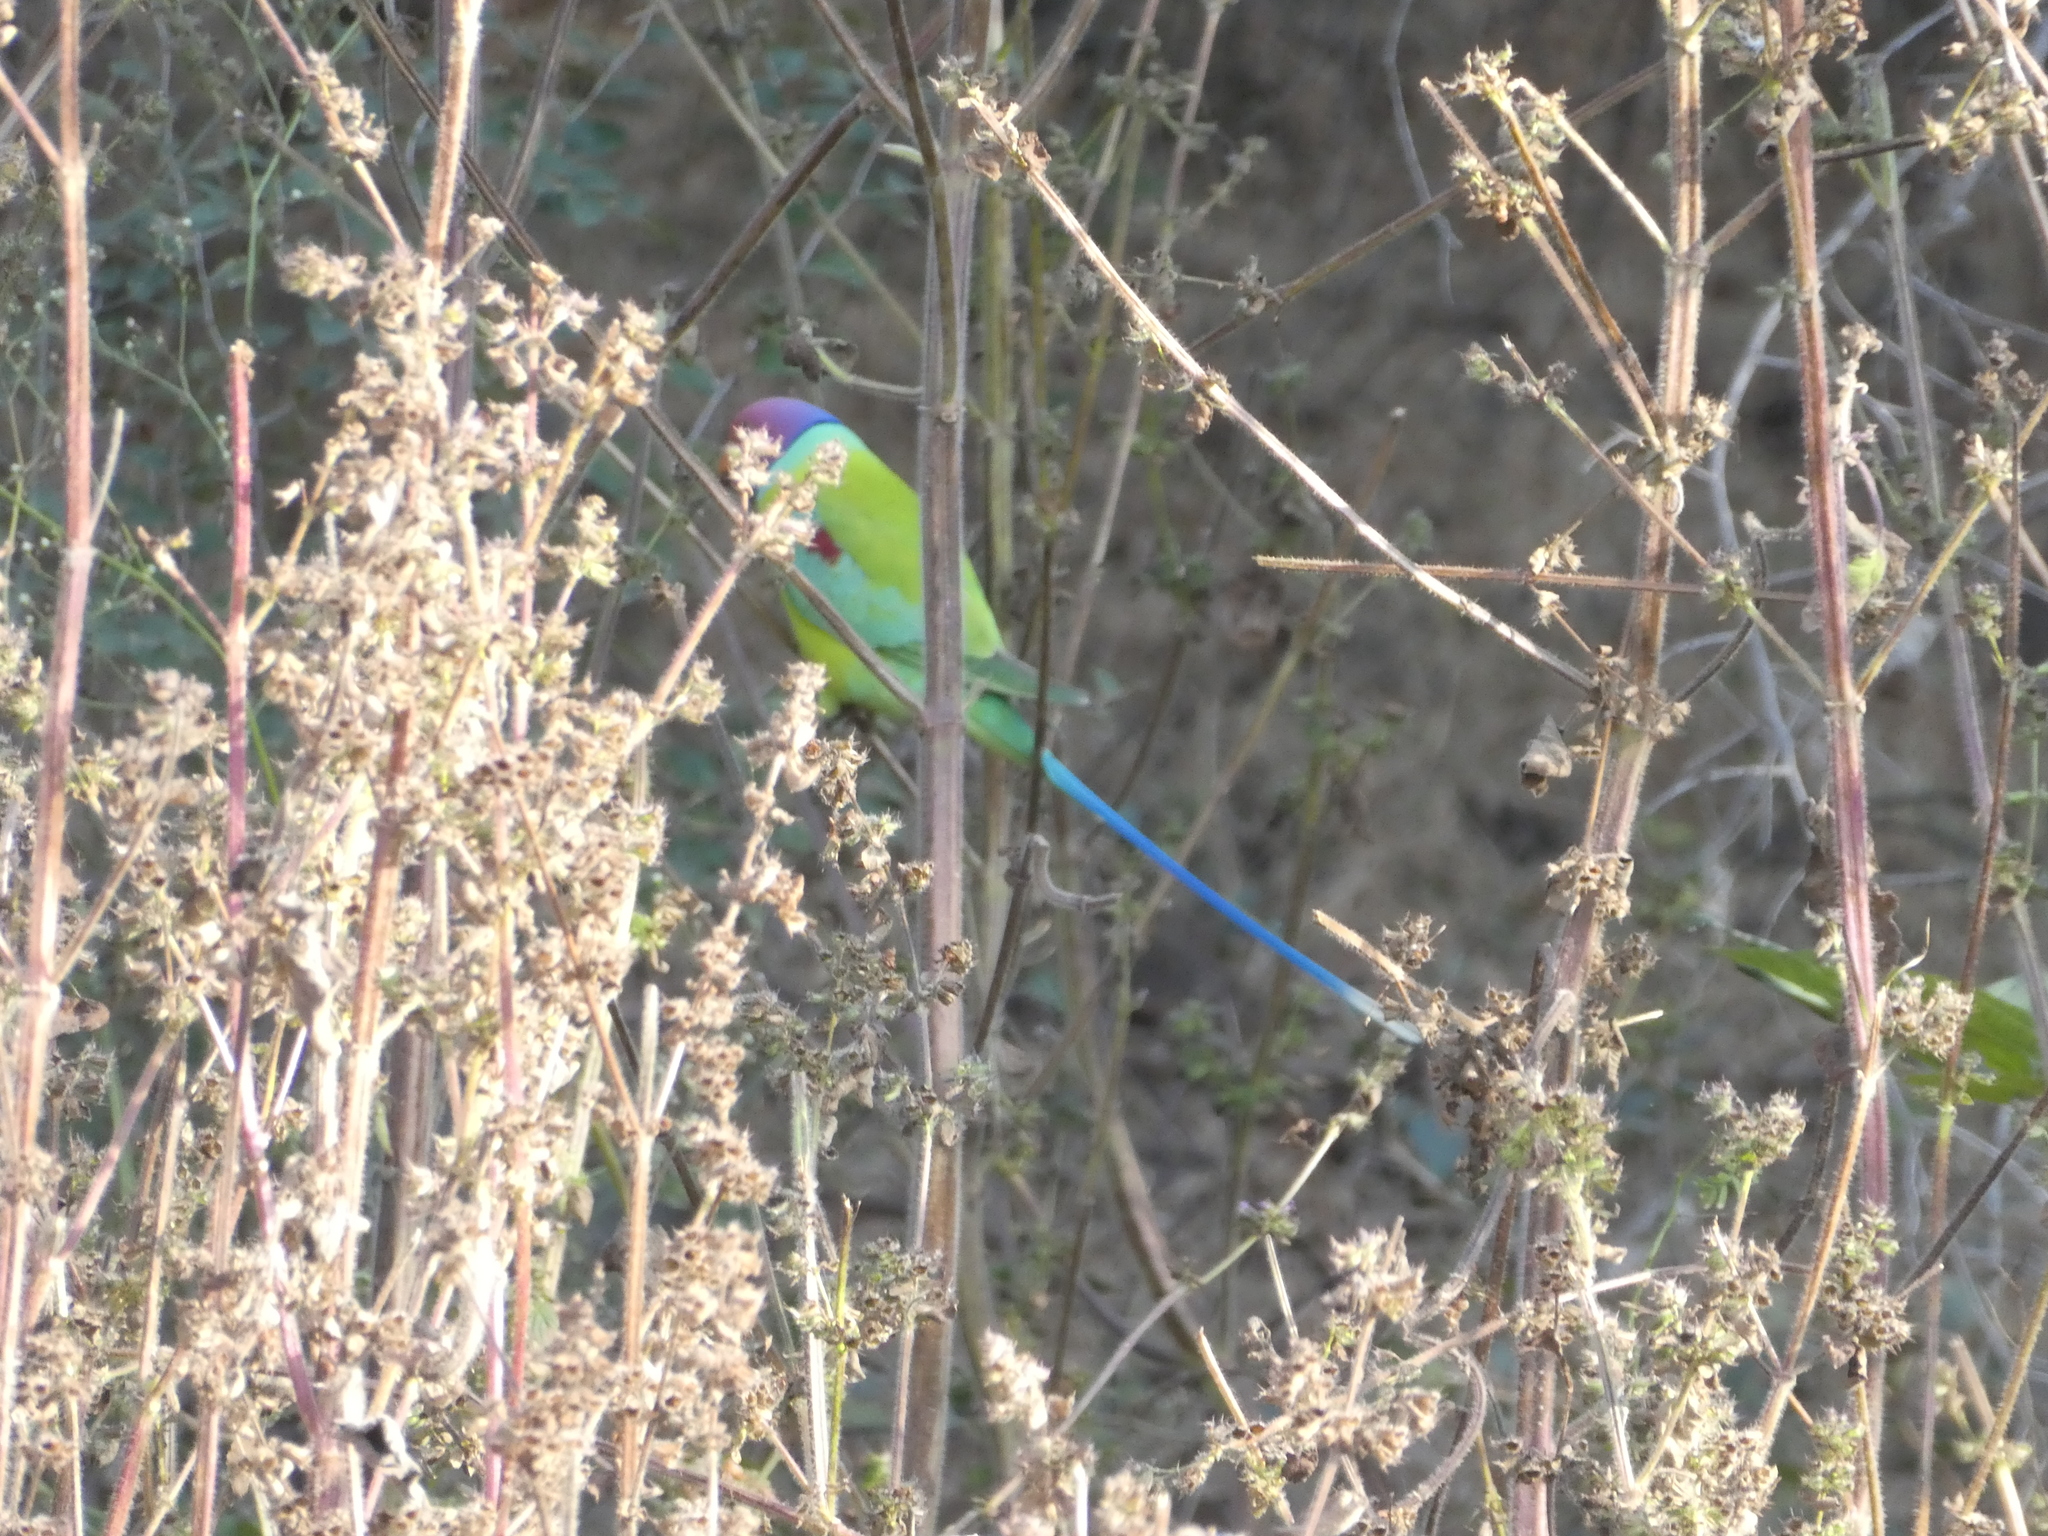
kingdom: Animalia
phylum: Chordata
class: Aves
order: Psittaciformes
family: Psittacidae
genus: Psittacula
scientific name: Psittacula cyanocephala
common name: Plum-headed parakeet
